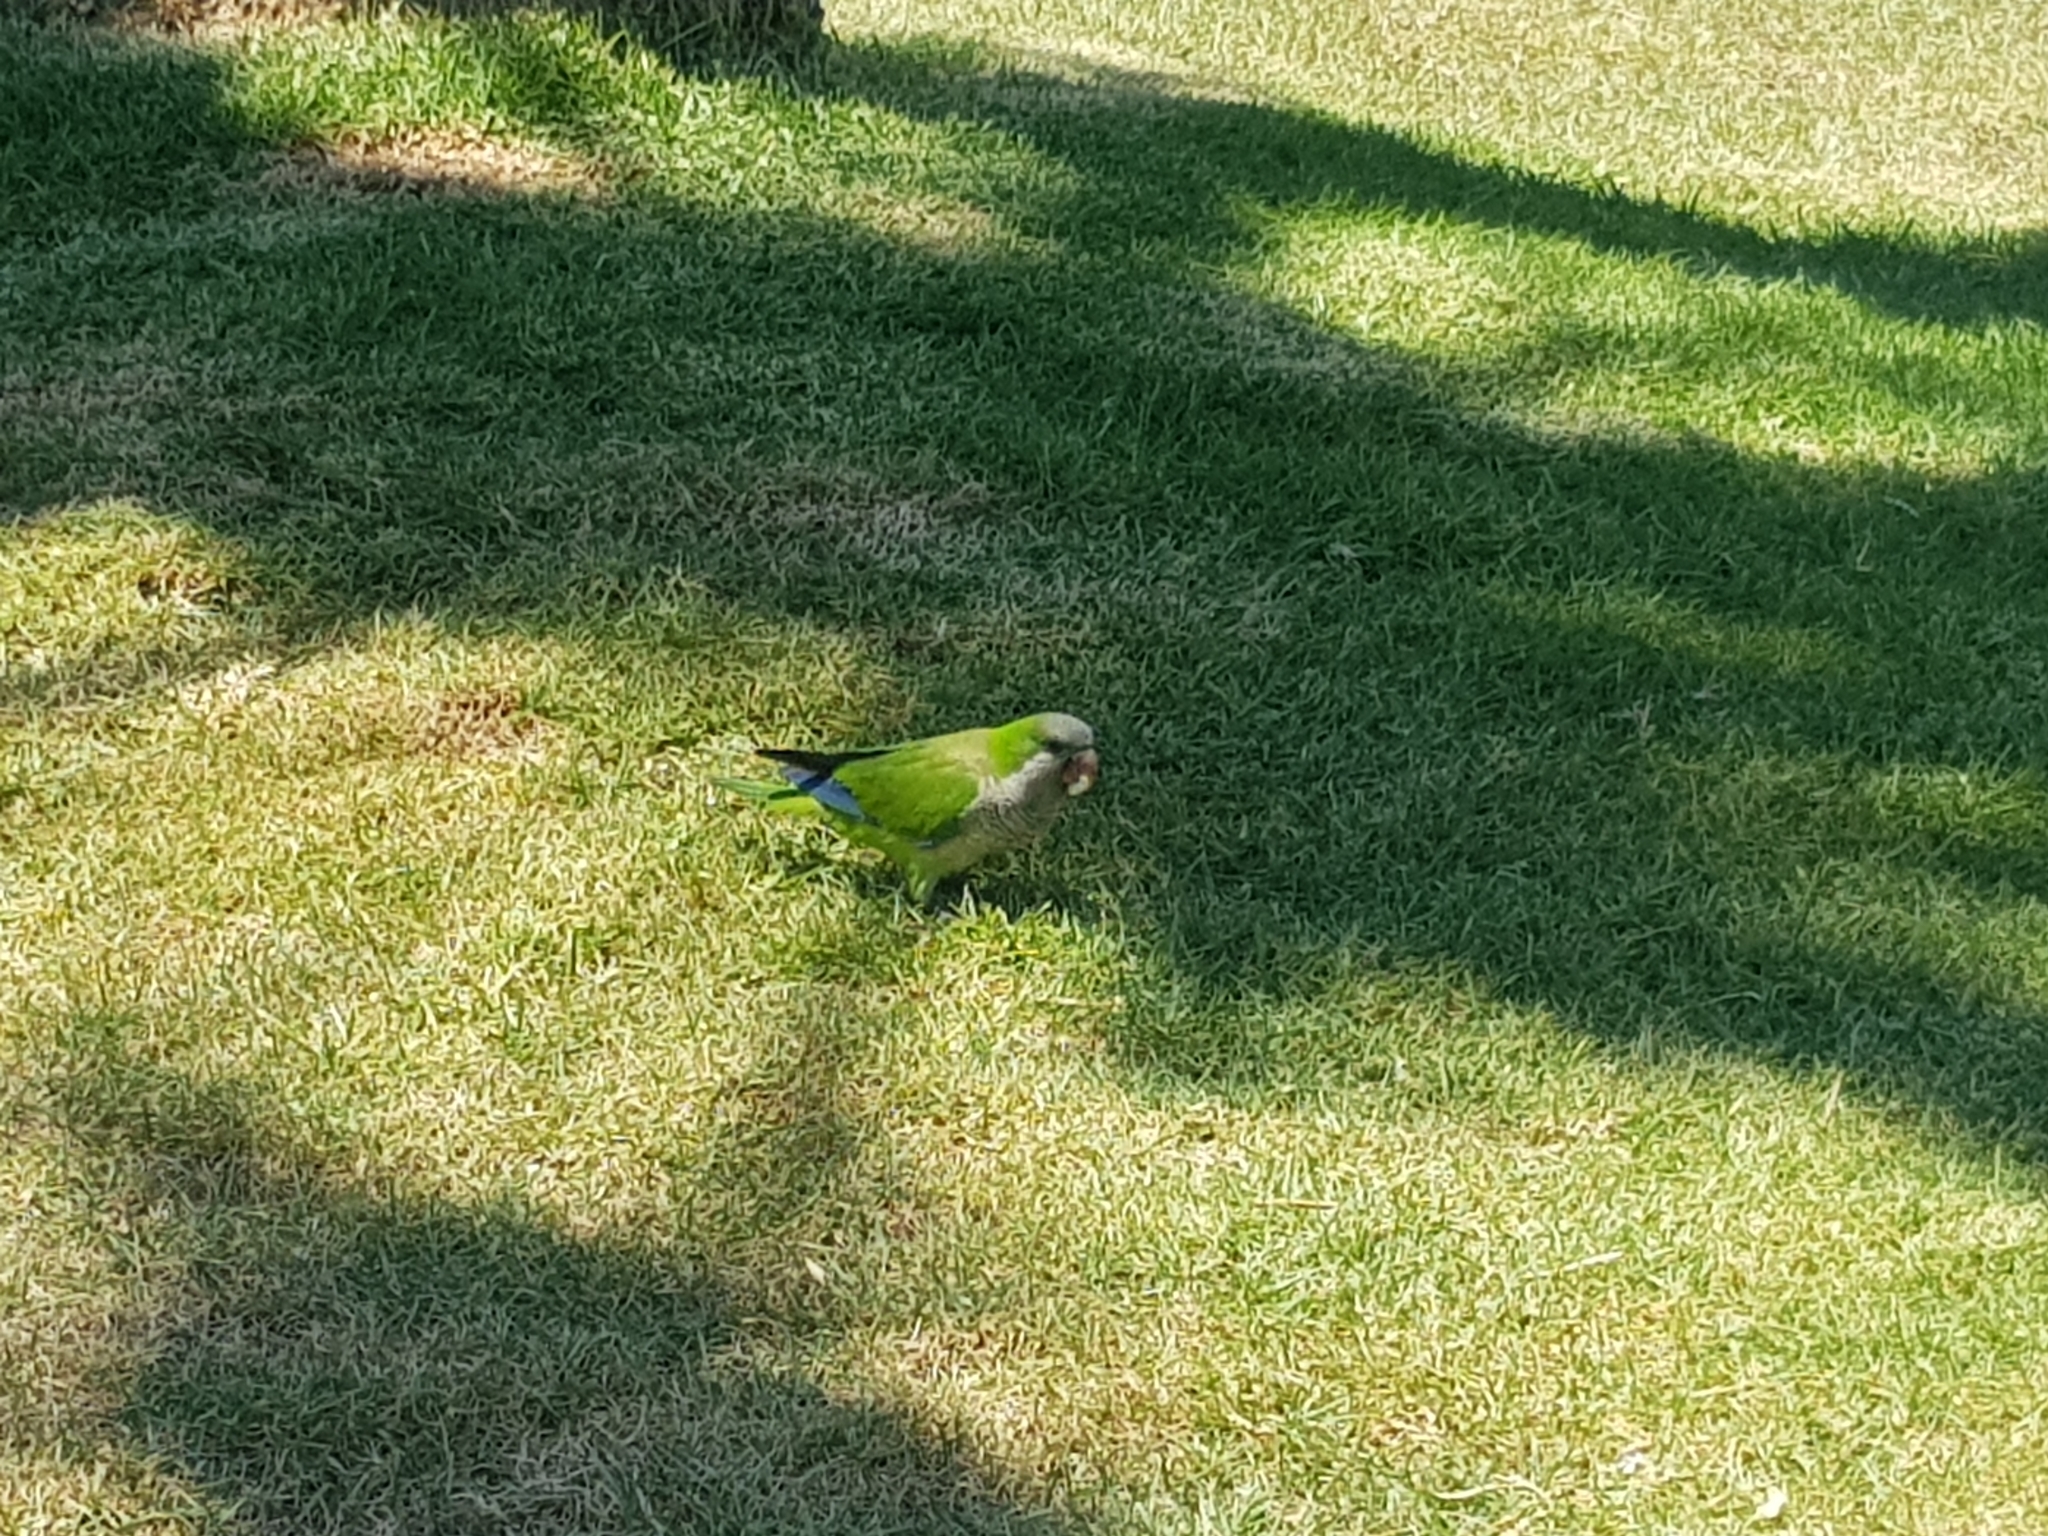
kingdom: Animalia
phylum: Chordata
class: Aves
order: Psittaciformes
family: Psittacidae
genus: Myiopsitta
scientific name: Myiopsitta monachus
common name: Monk parakeet
